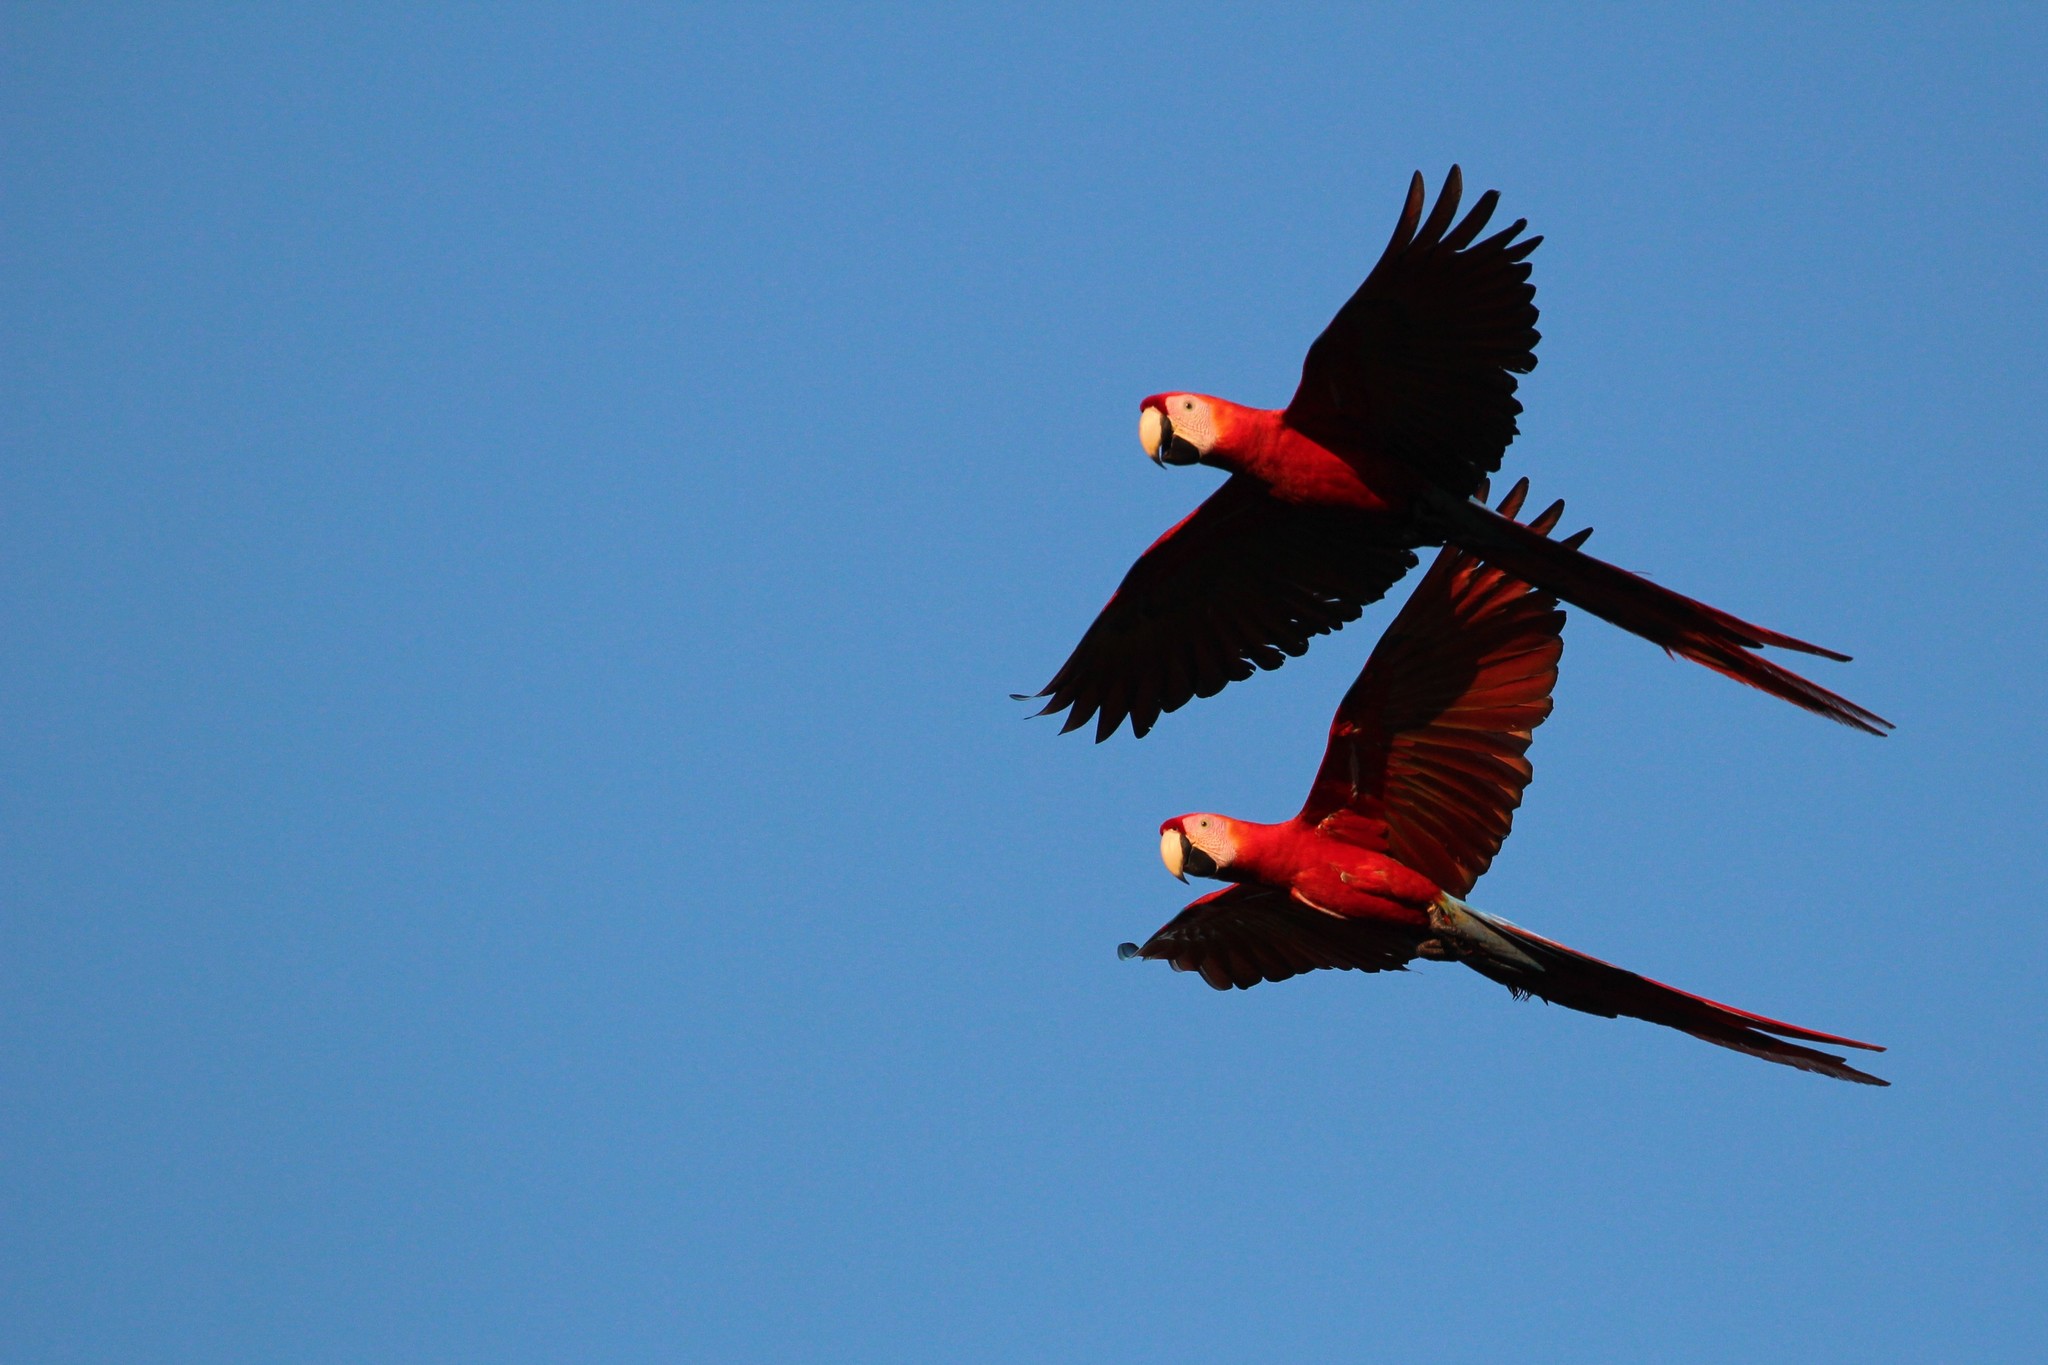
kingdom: Animalia
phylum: Chordata
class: Aves
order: Psittaciformes
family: Psittacidae
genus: Ara
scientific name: Ara macao
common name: Scarlet macaw
